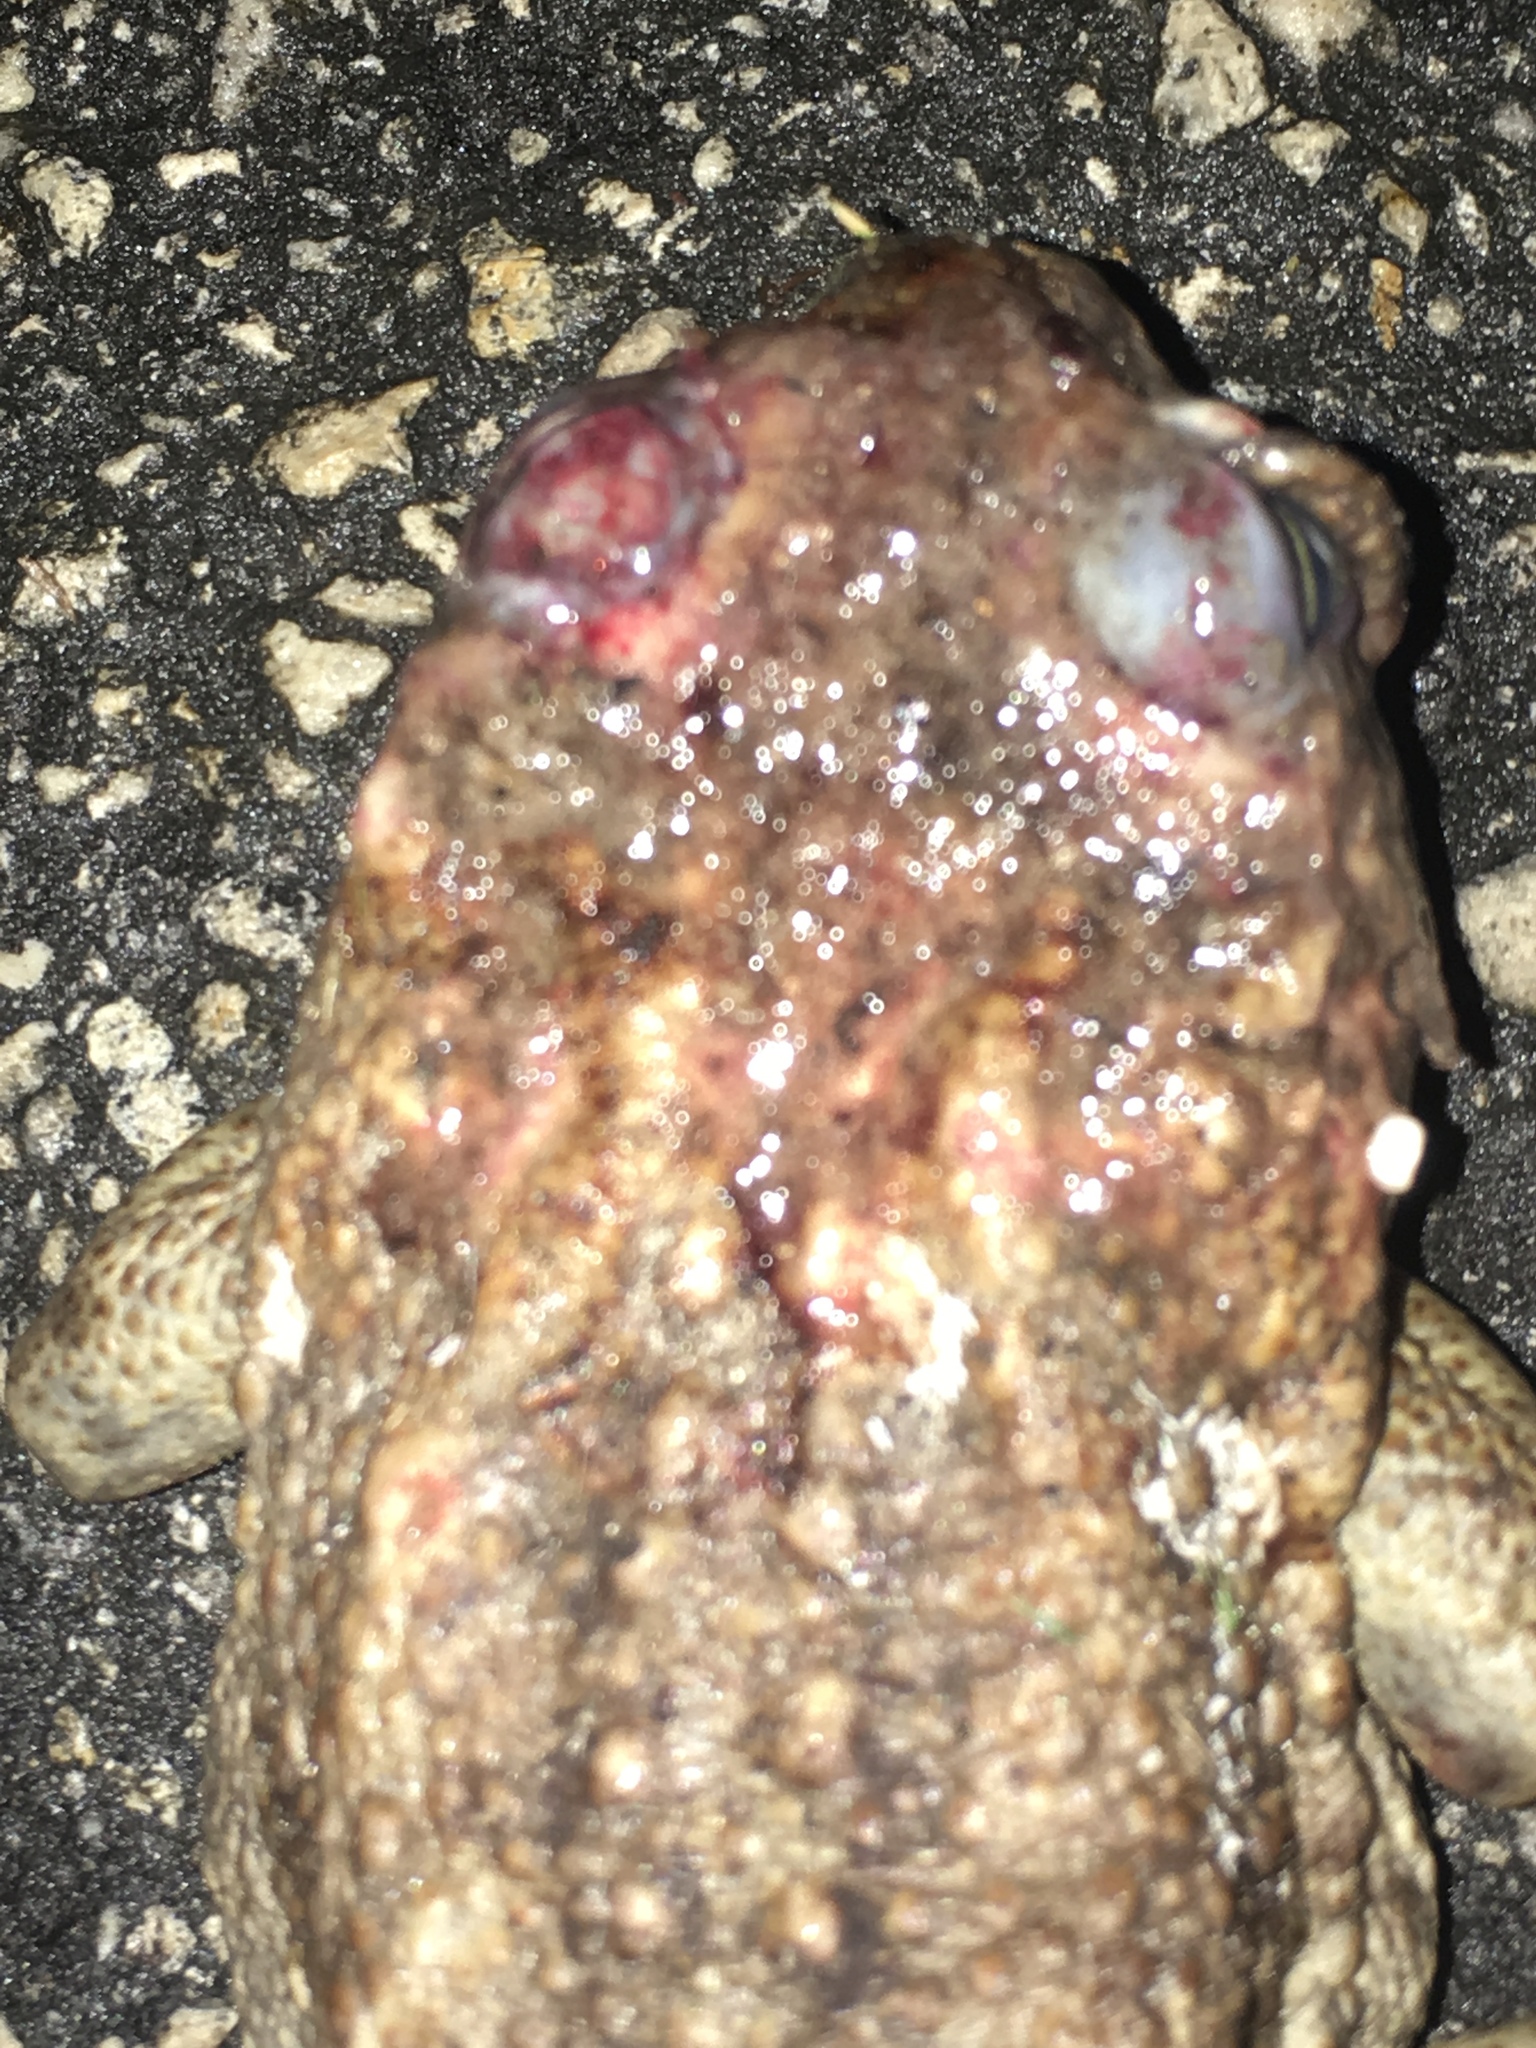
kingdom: Animalia
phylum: Chordata
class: Amphibia
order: Anura
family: Bufonidae
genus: Rhinella
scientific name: Rhinella marina
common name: Cane toad
